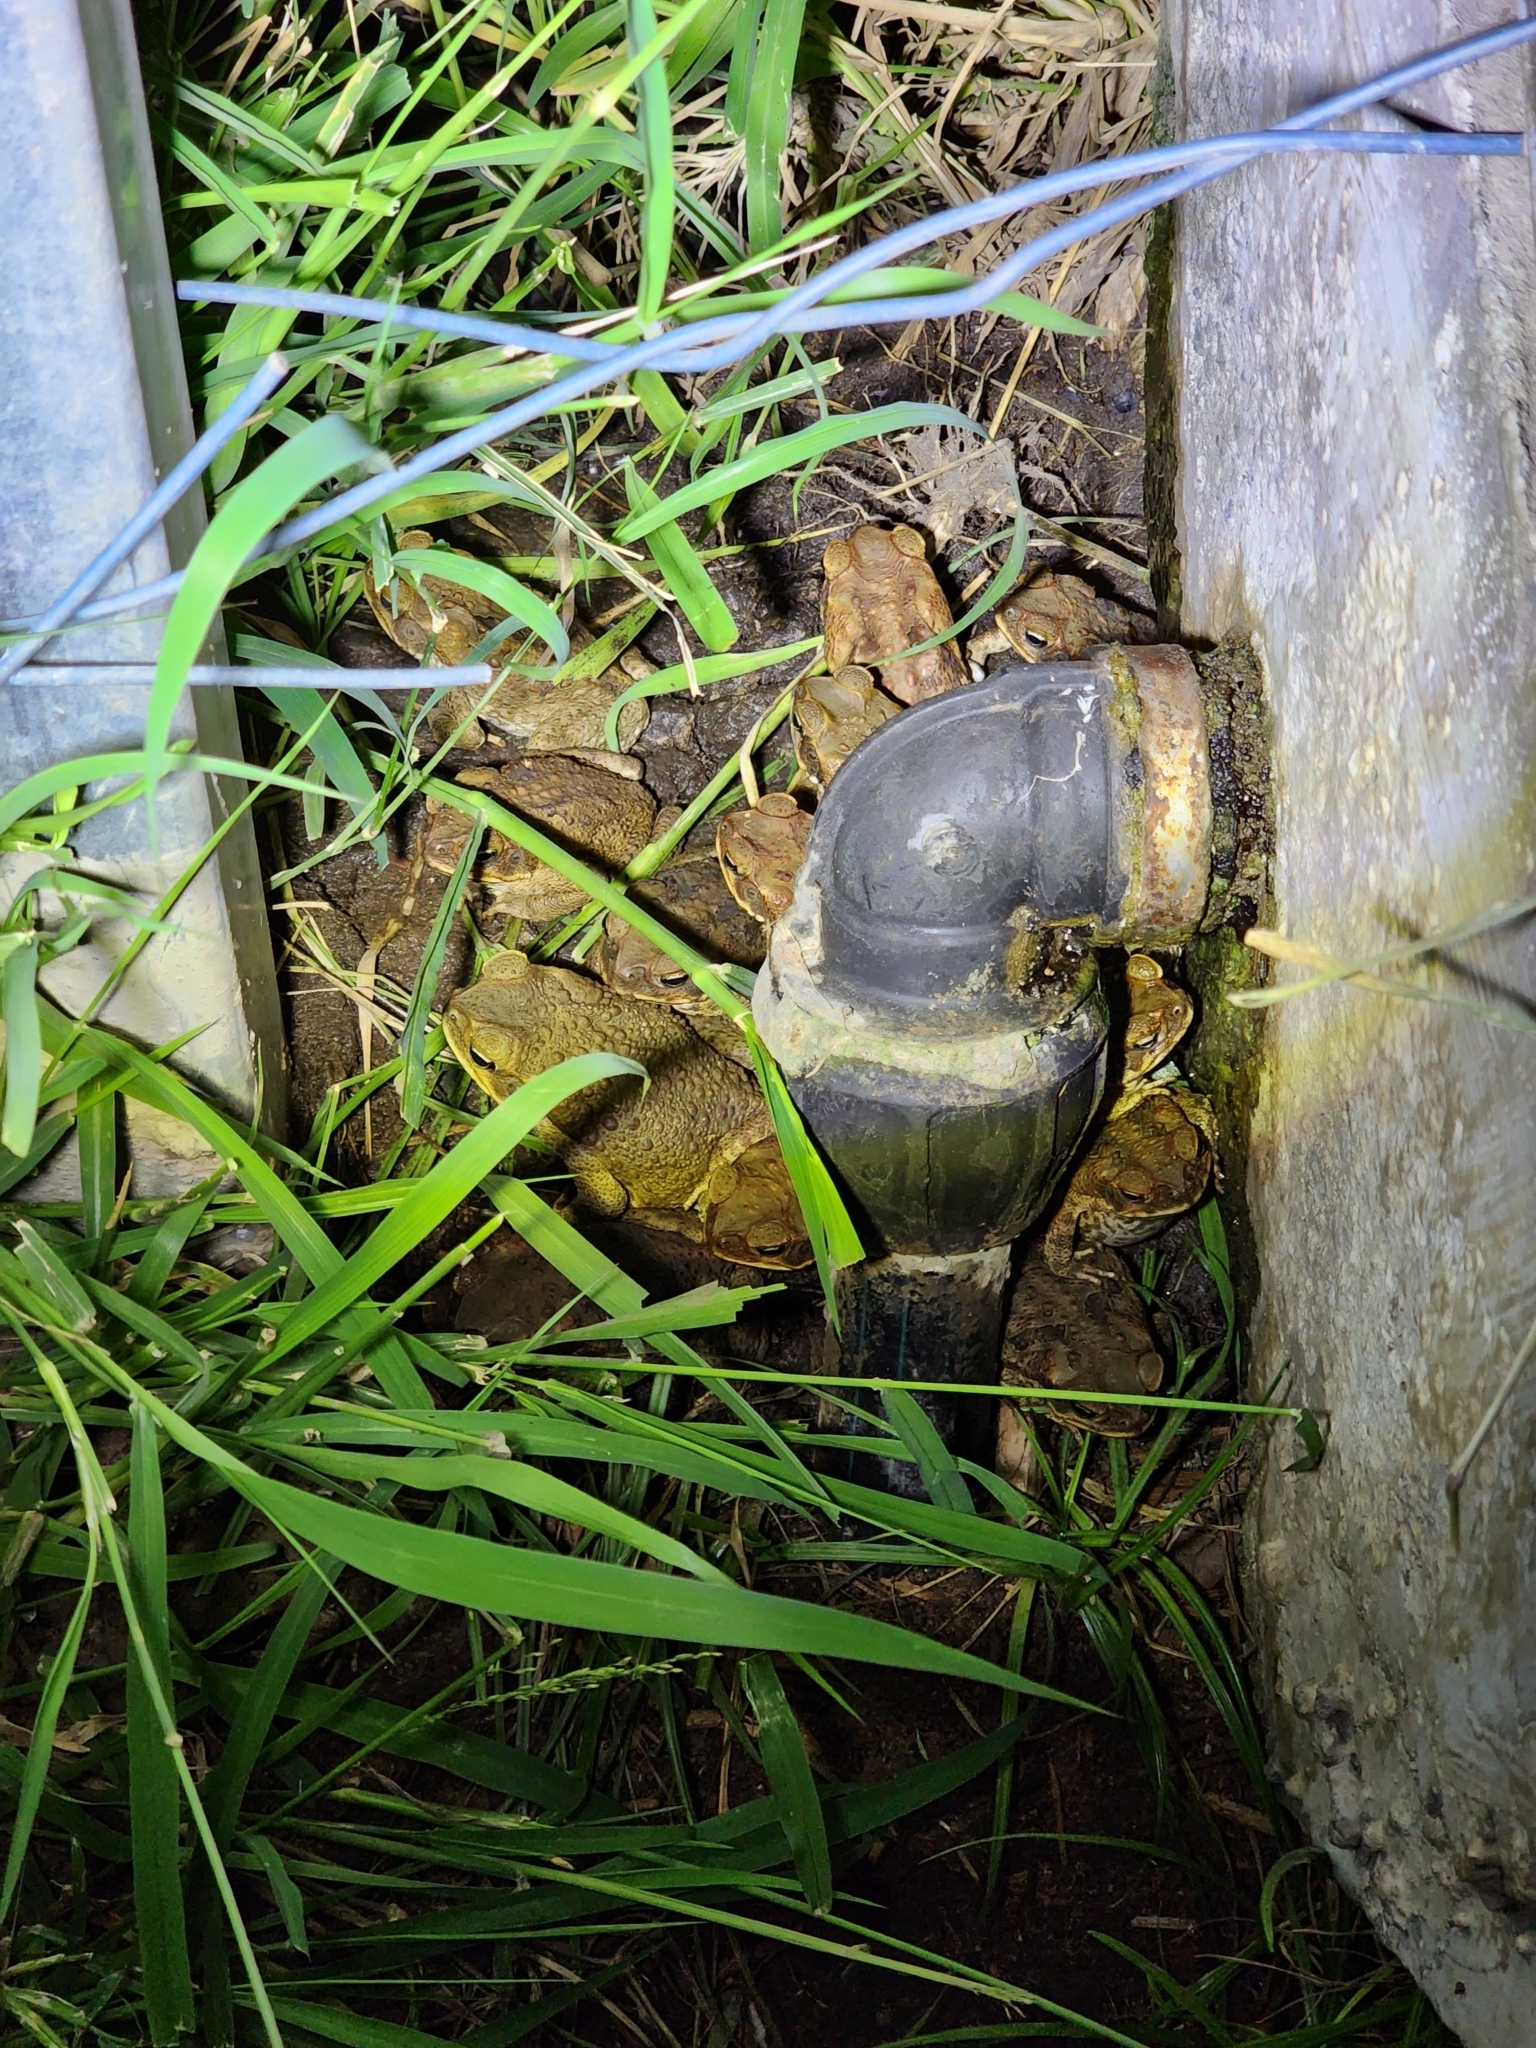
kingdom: Animalia
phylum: Chordata
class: Amphibia
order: Anura
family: Bufonidae
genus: Rhinella
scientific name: Rhinella marina
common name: Cane toad
